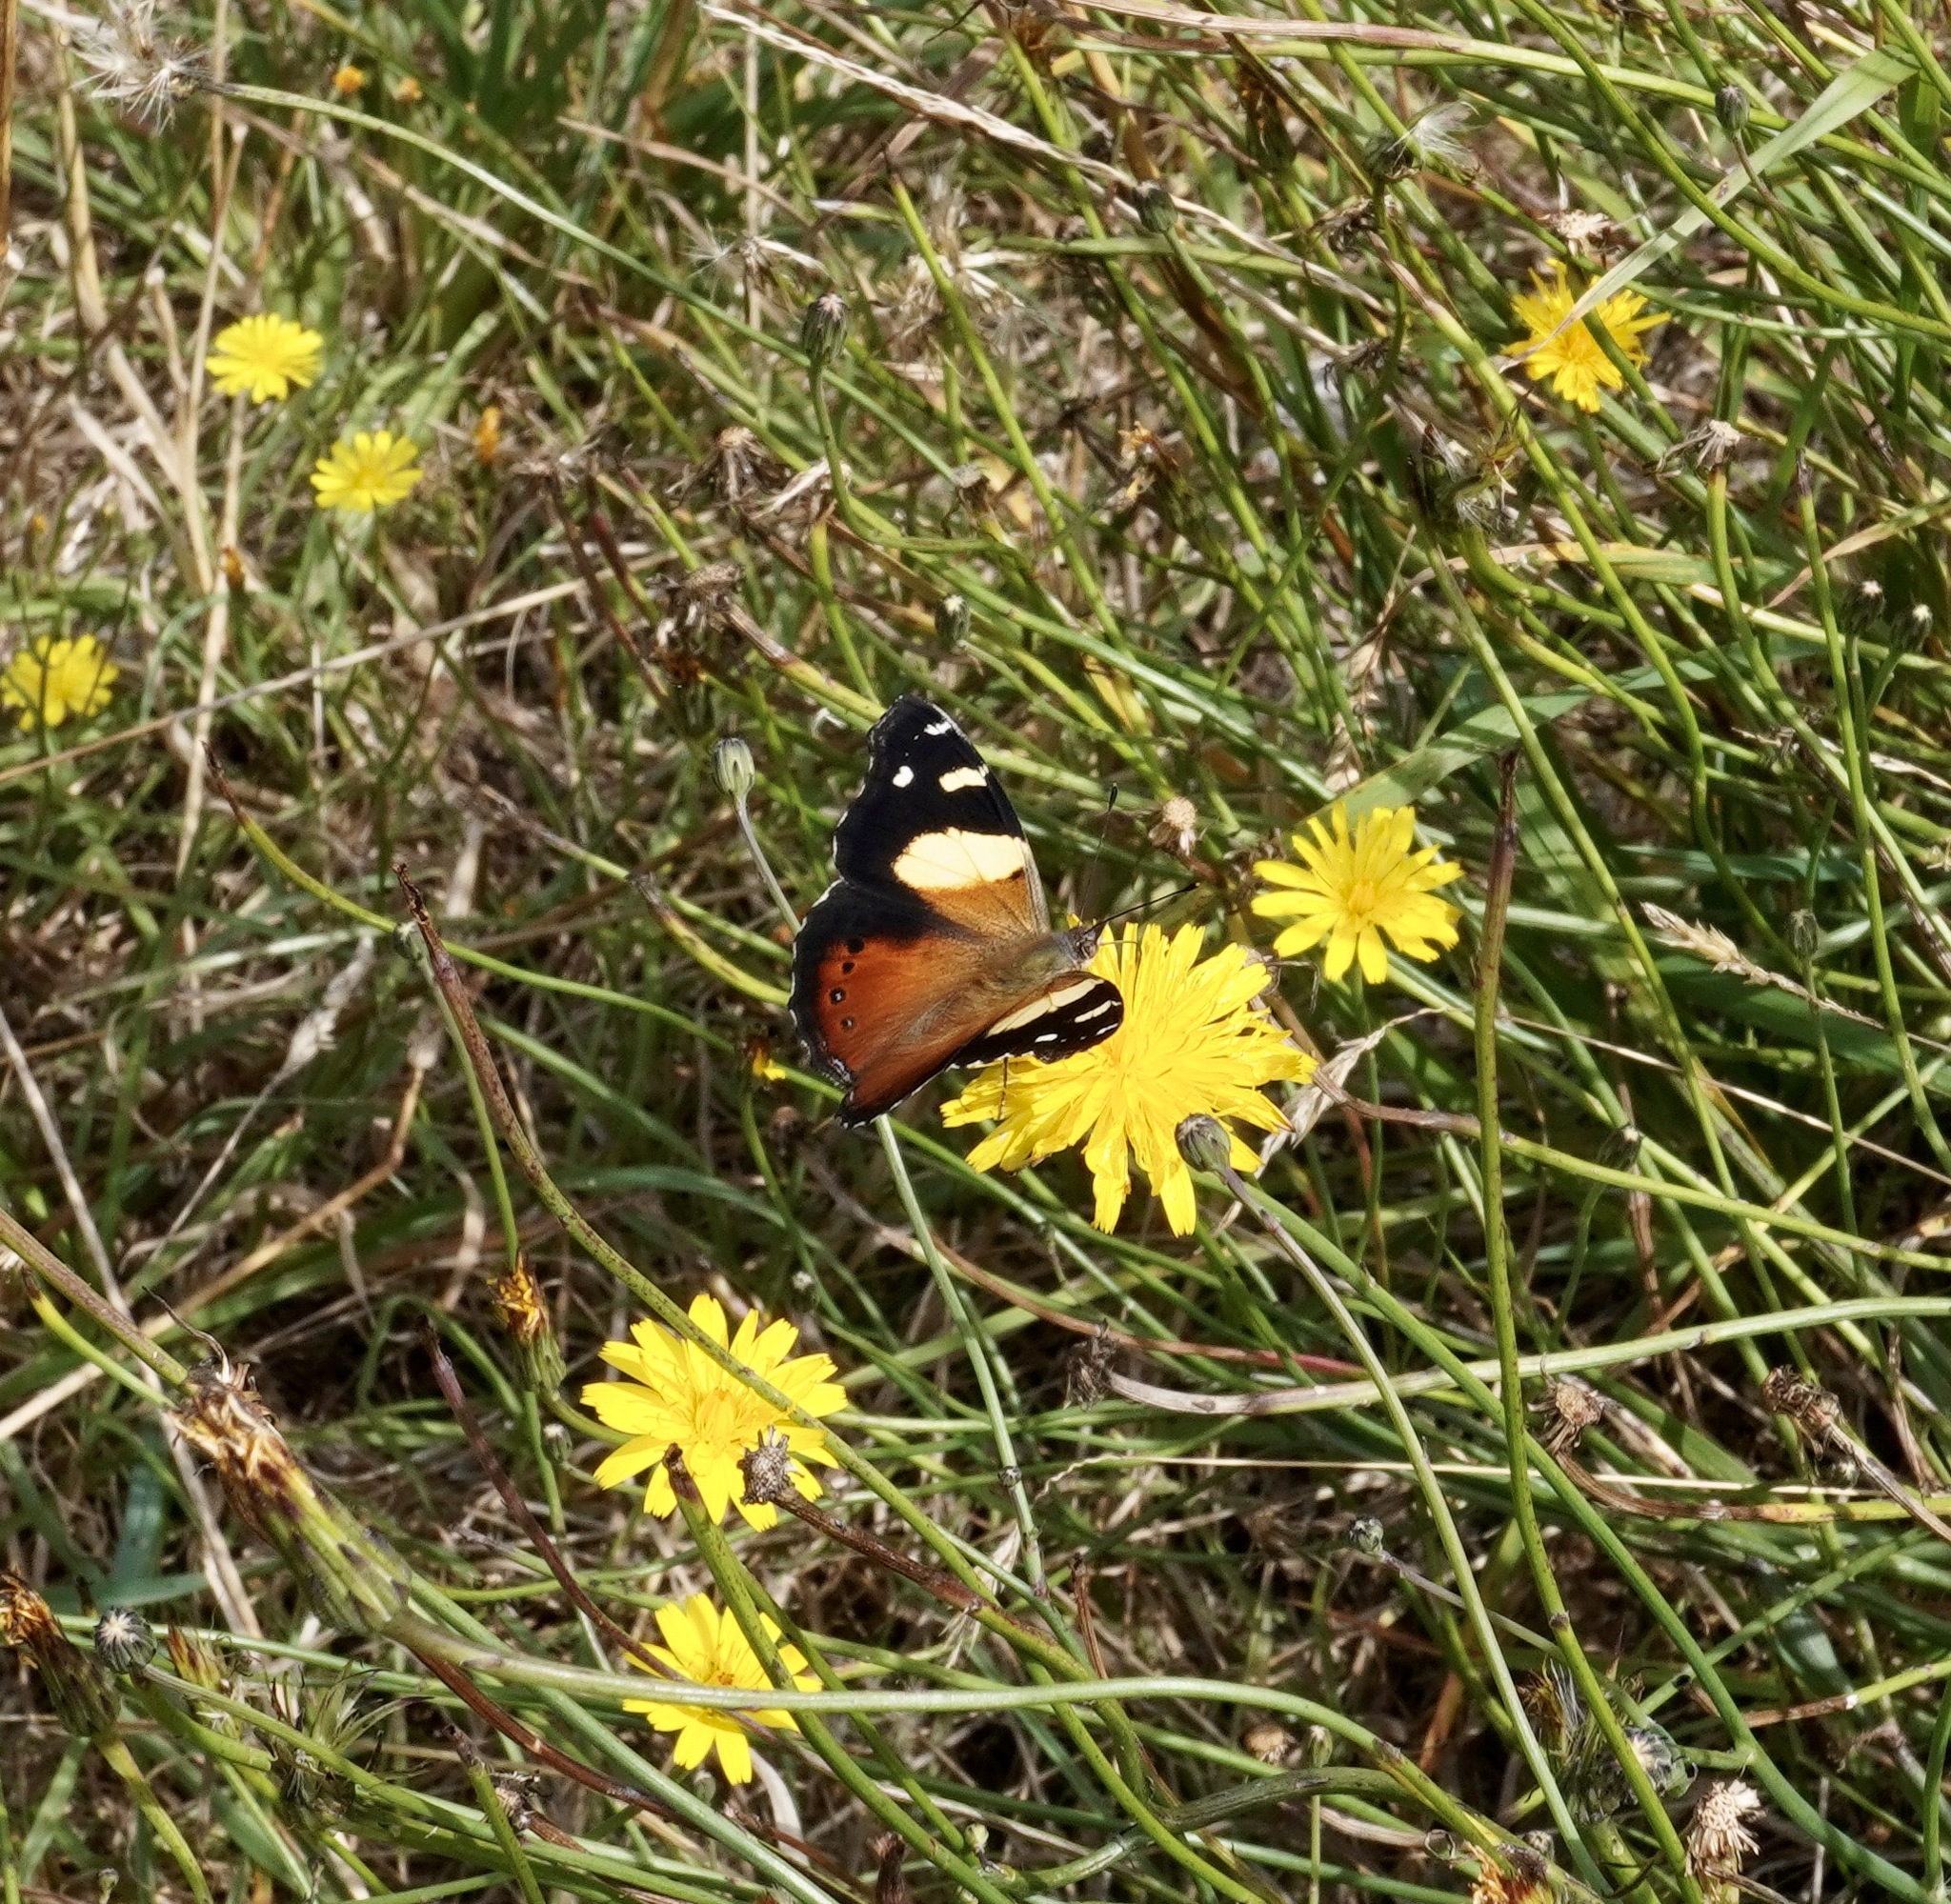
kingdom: Animalia
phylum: Arthropoda
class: Insecta
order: Lepidoptera
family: Nymphalidae
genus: Vanessa
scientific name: Vanessa itea
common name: Yellow admiral
